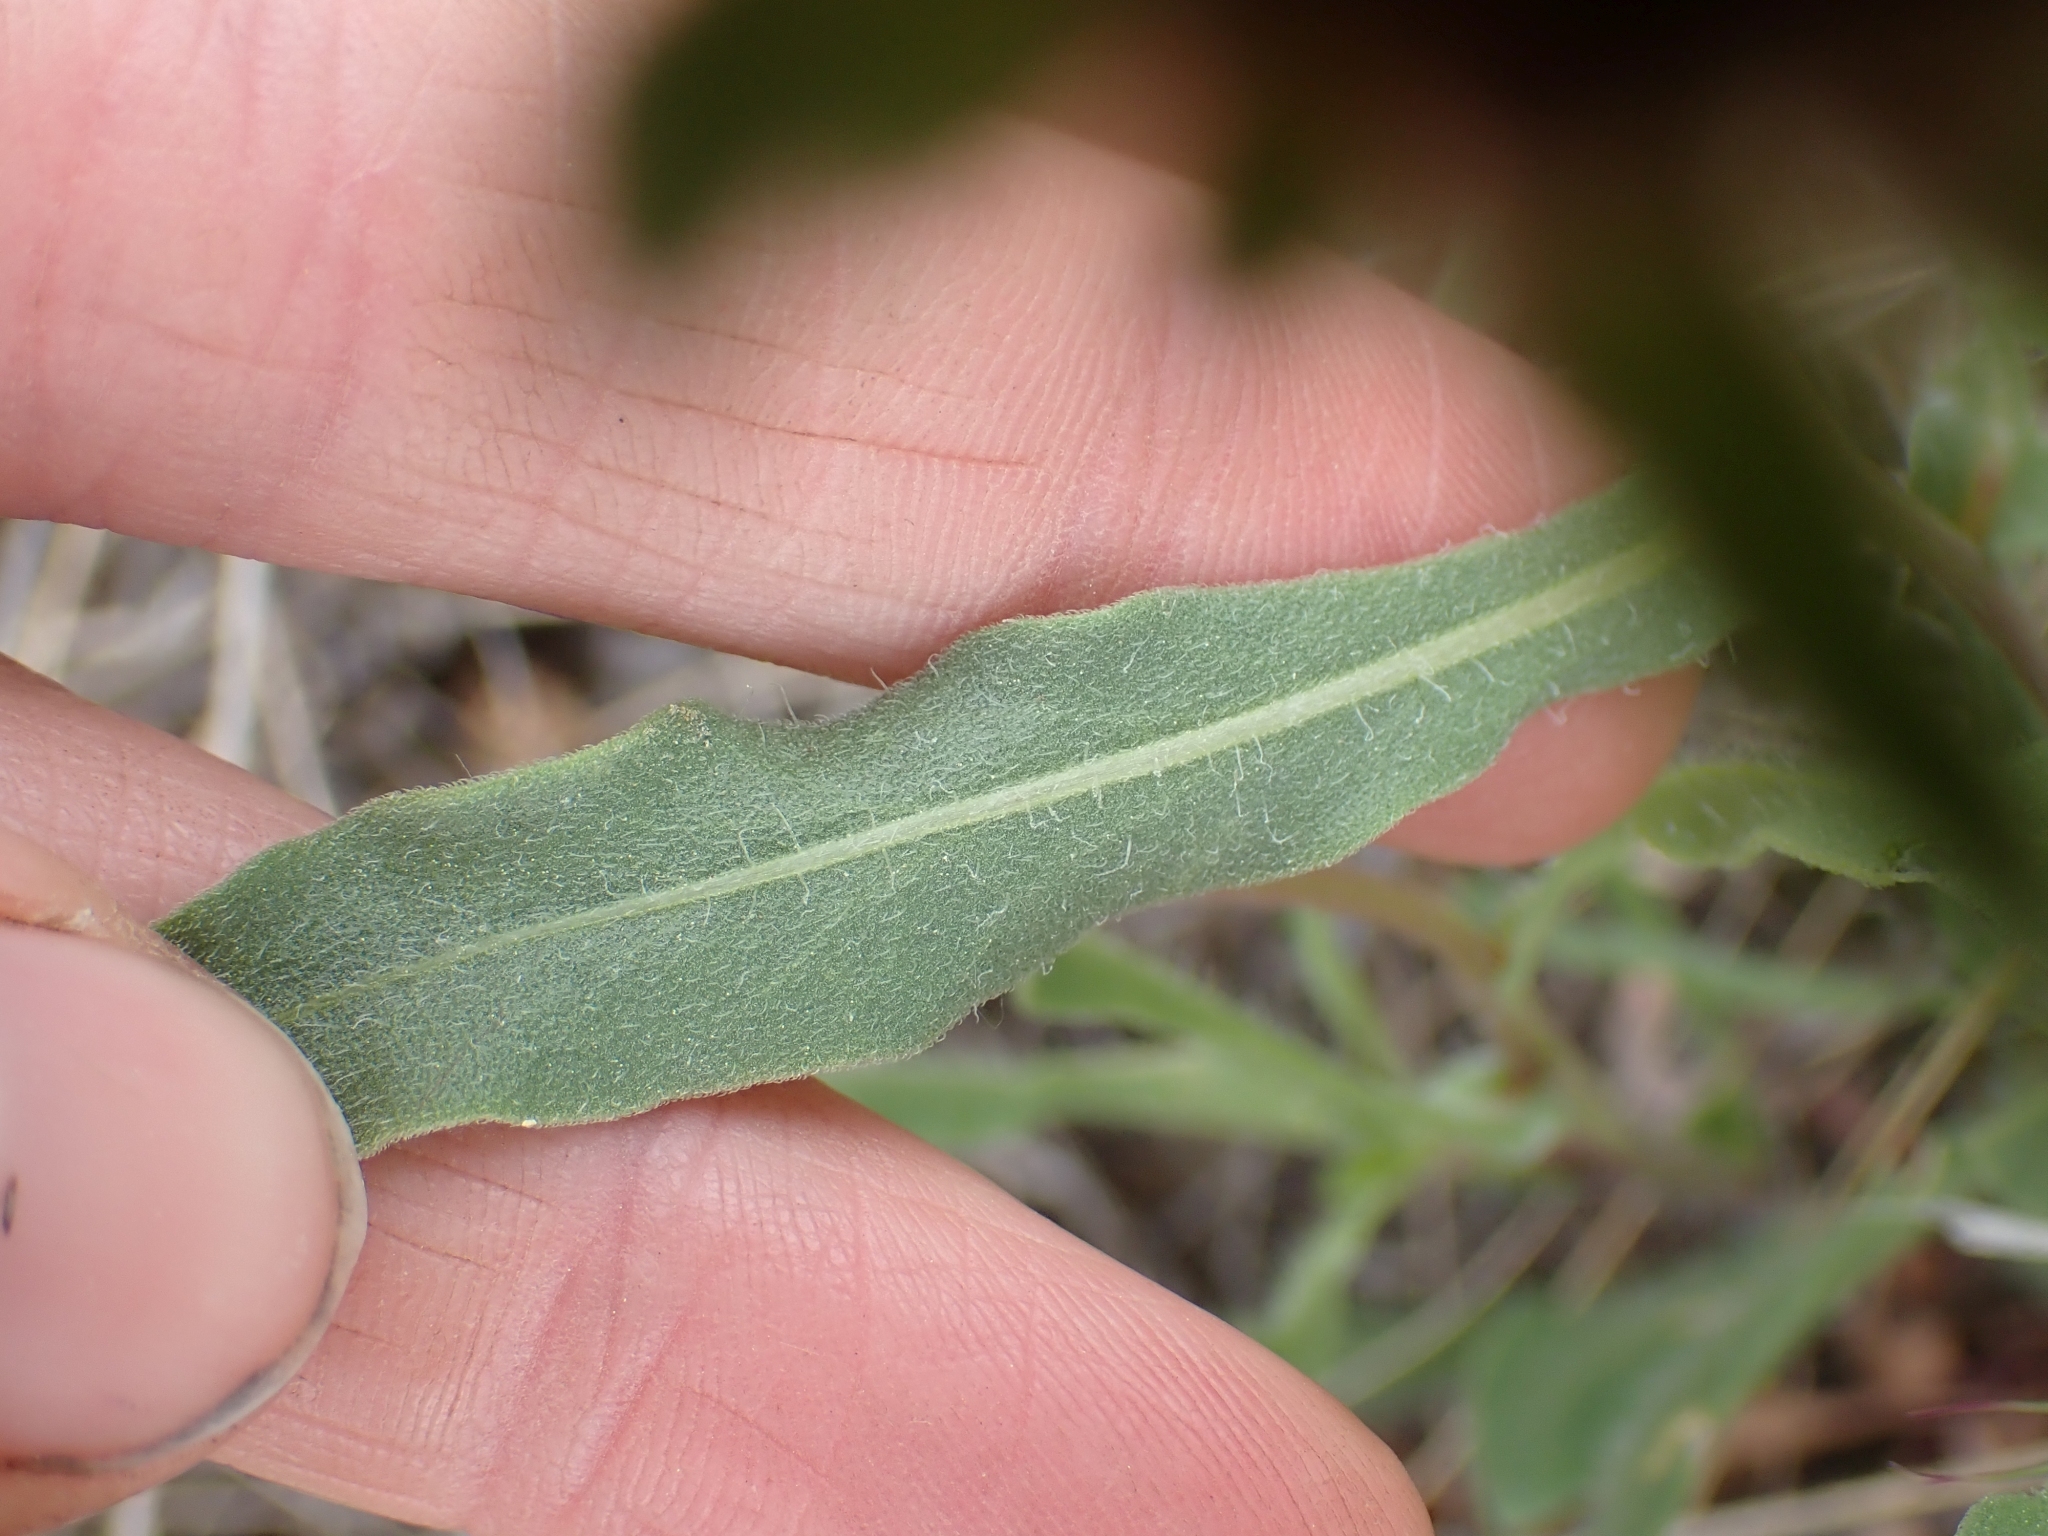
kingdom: Plantae
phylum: Tracheophyta
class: Magnoliopsida
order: Asterales
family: Asteraceae
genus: Gaillardia
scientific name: Gaillardia aristata
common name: Blanket-flower
